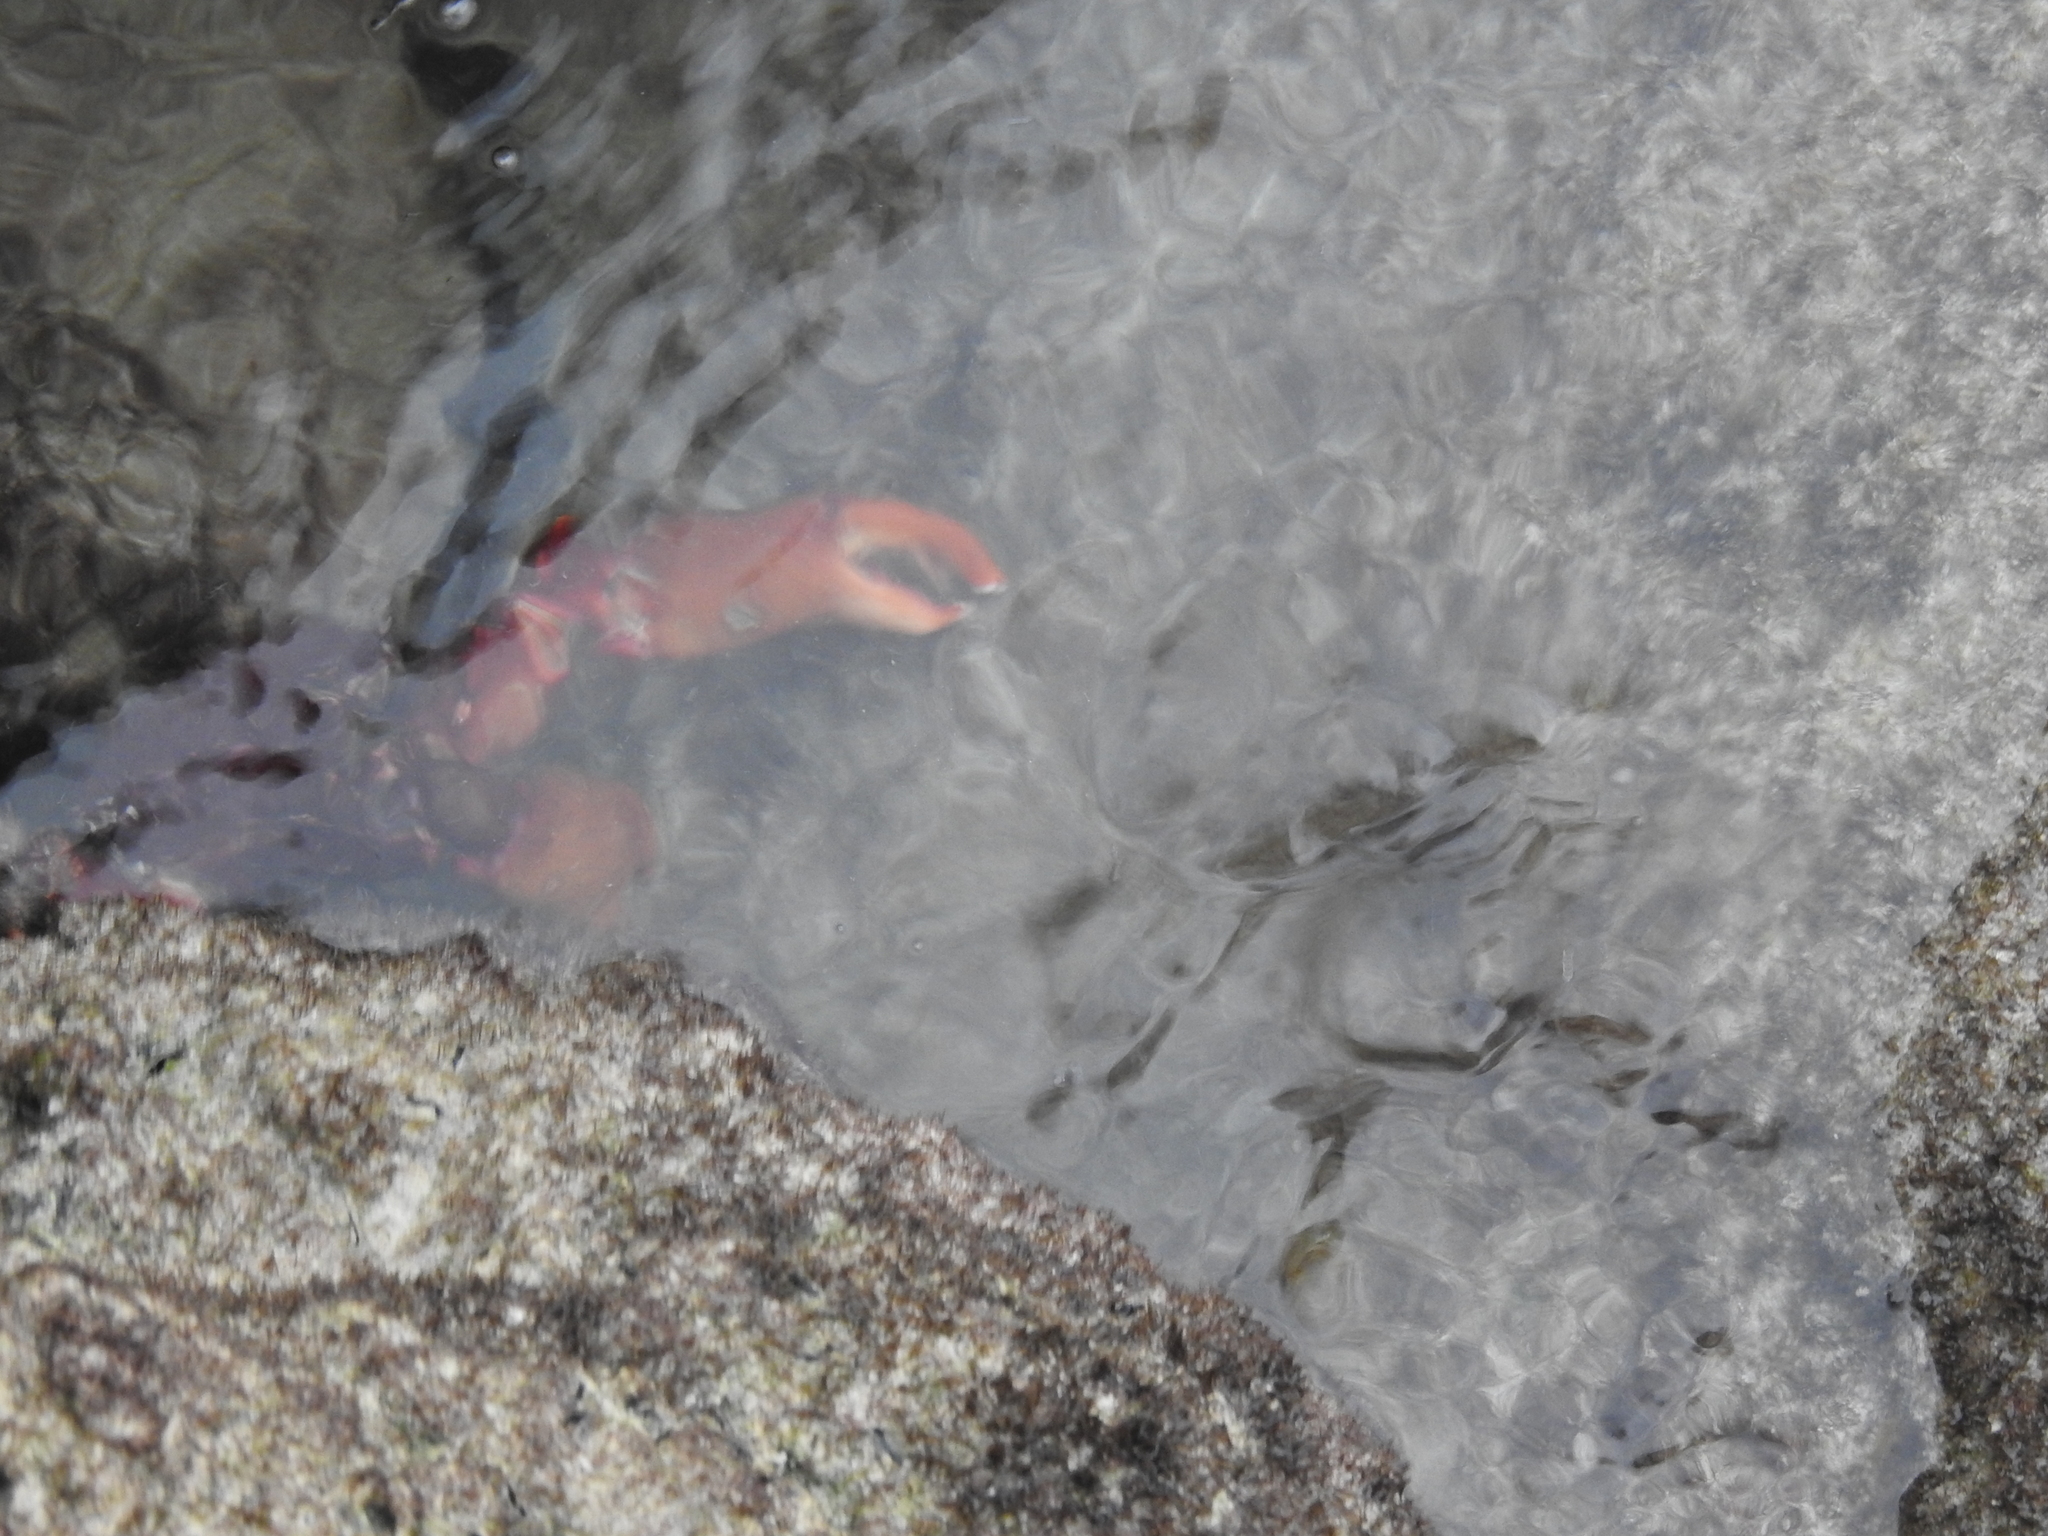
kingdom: Animalia
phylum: Arthropoda
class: Malacostraca
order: Decapoda
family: Mithracidae
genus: Maguimithrax
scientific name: Maguimithrax spinosissimus
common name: Spiny spider crab
